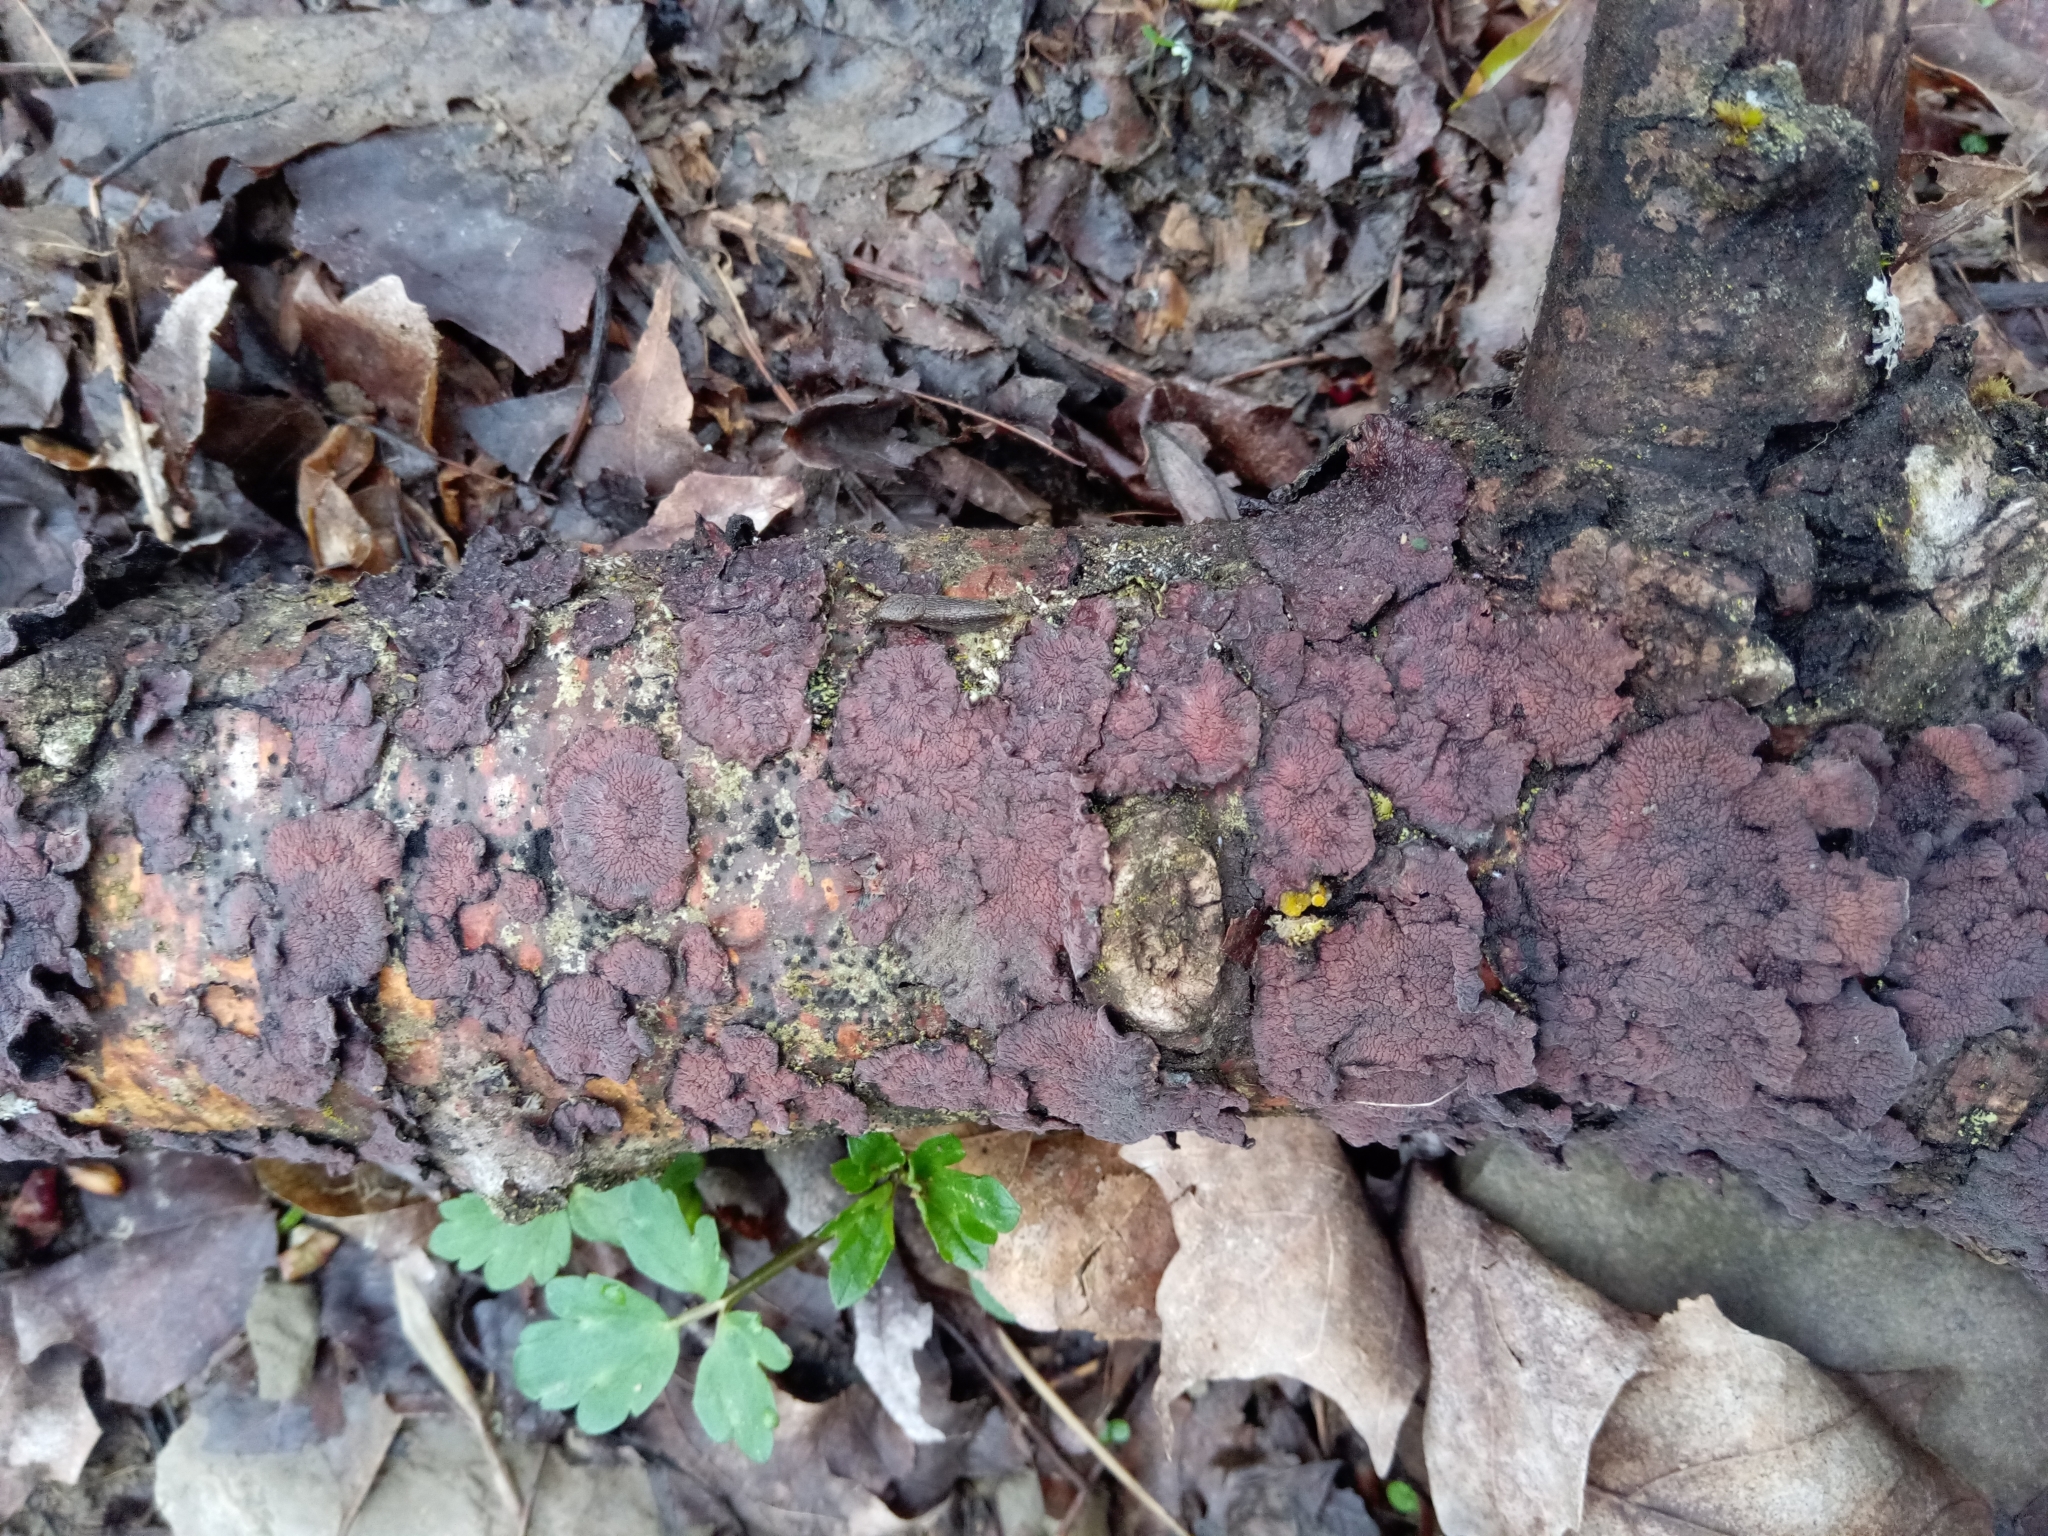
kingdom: Fungi
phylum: Basidiomycota
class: Agaricomycetes
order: Corticiales
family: Punctulariaceae
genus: Punctularia
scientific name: Punctularia strigosozonata
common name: White-rot fungus
